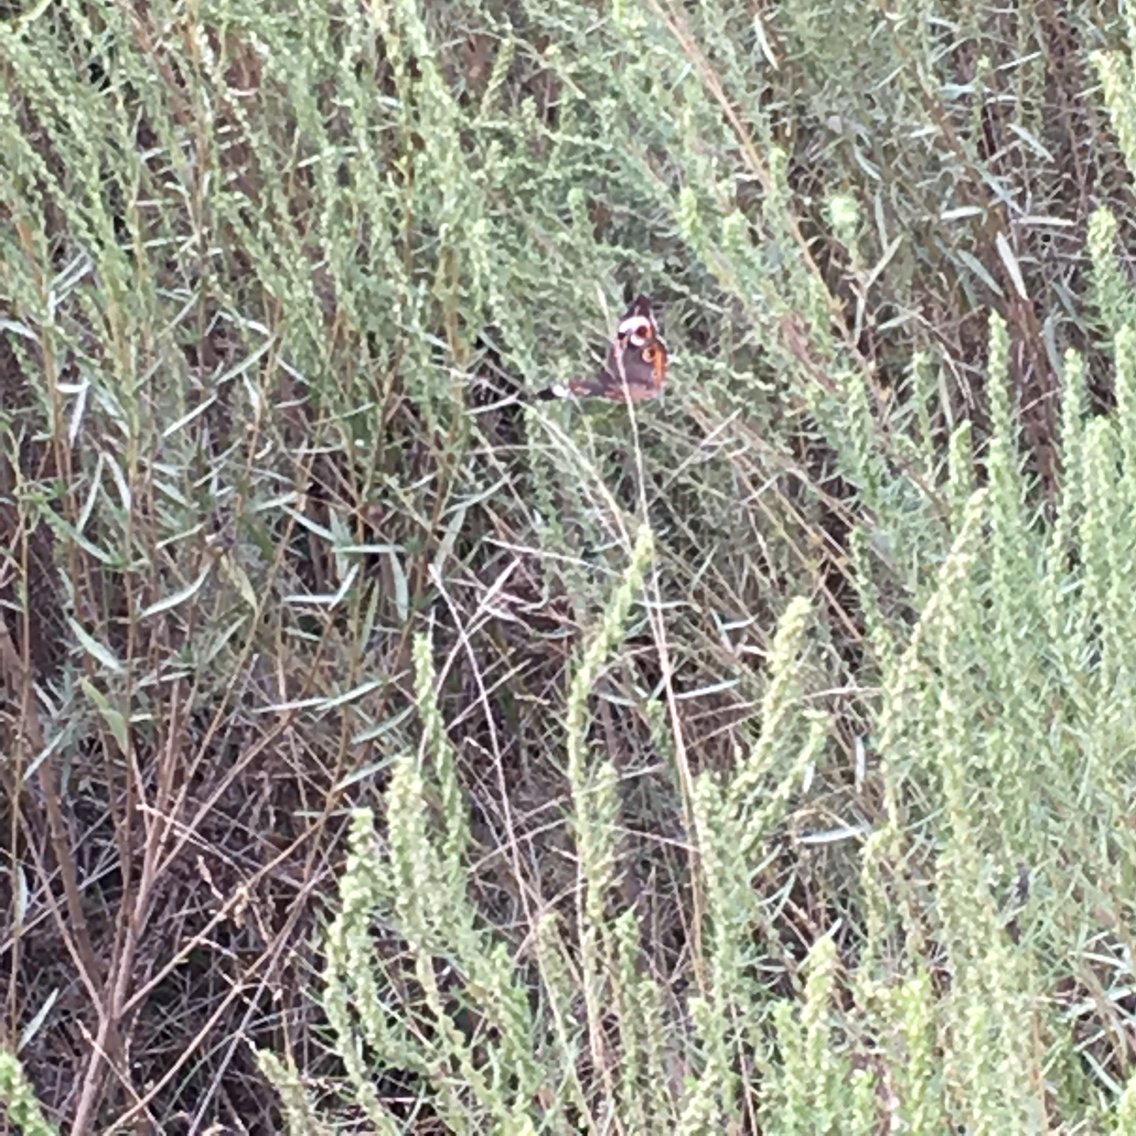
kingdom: Animalia
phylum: Arthropoda
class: Insecta
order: Lepidoptera
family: Nymphalidae
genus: Junonia
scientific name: Junonia coenia
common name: Common buckeye
